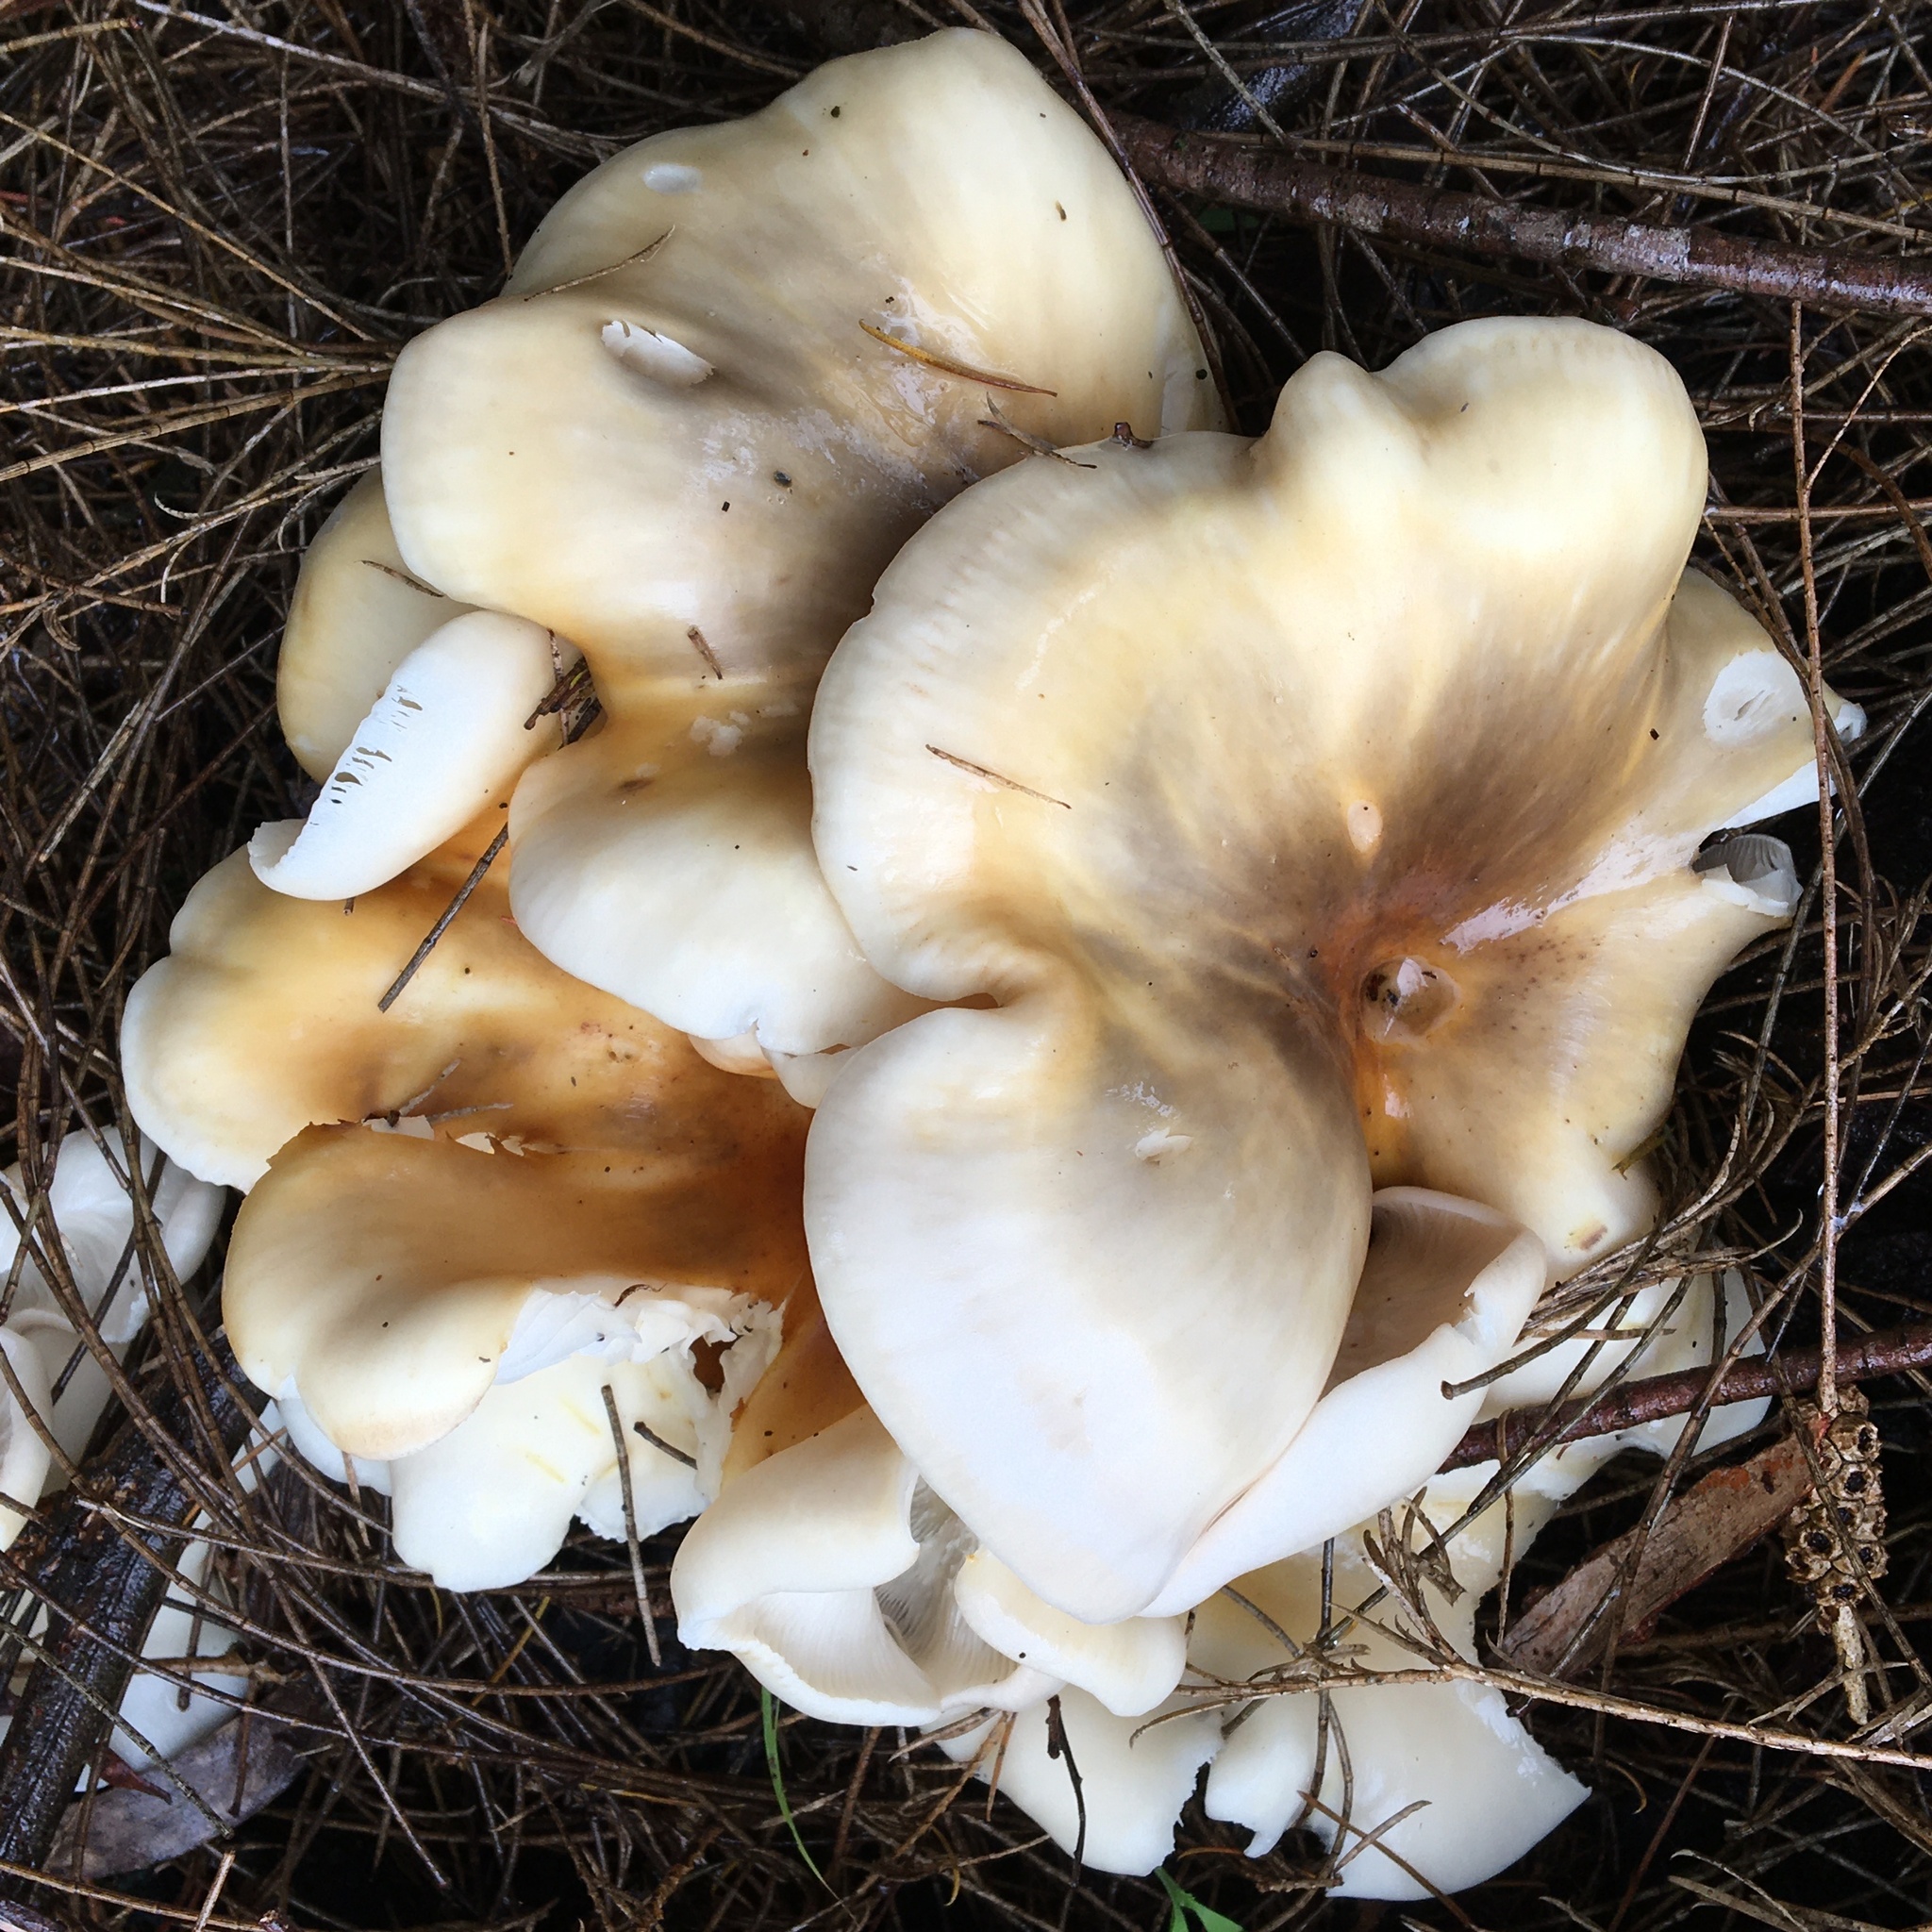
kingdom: Fungi
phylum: Basidiomycota
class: Agaricomycetes
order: Agaricales
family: Omphalotaceae
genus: Omphalotus
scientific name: Omphalotus nidiformis
